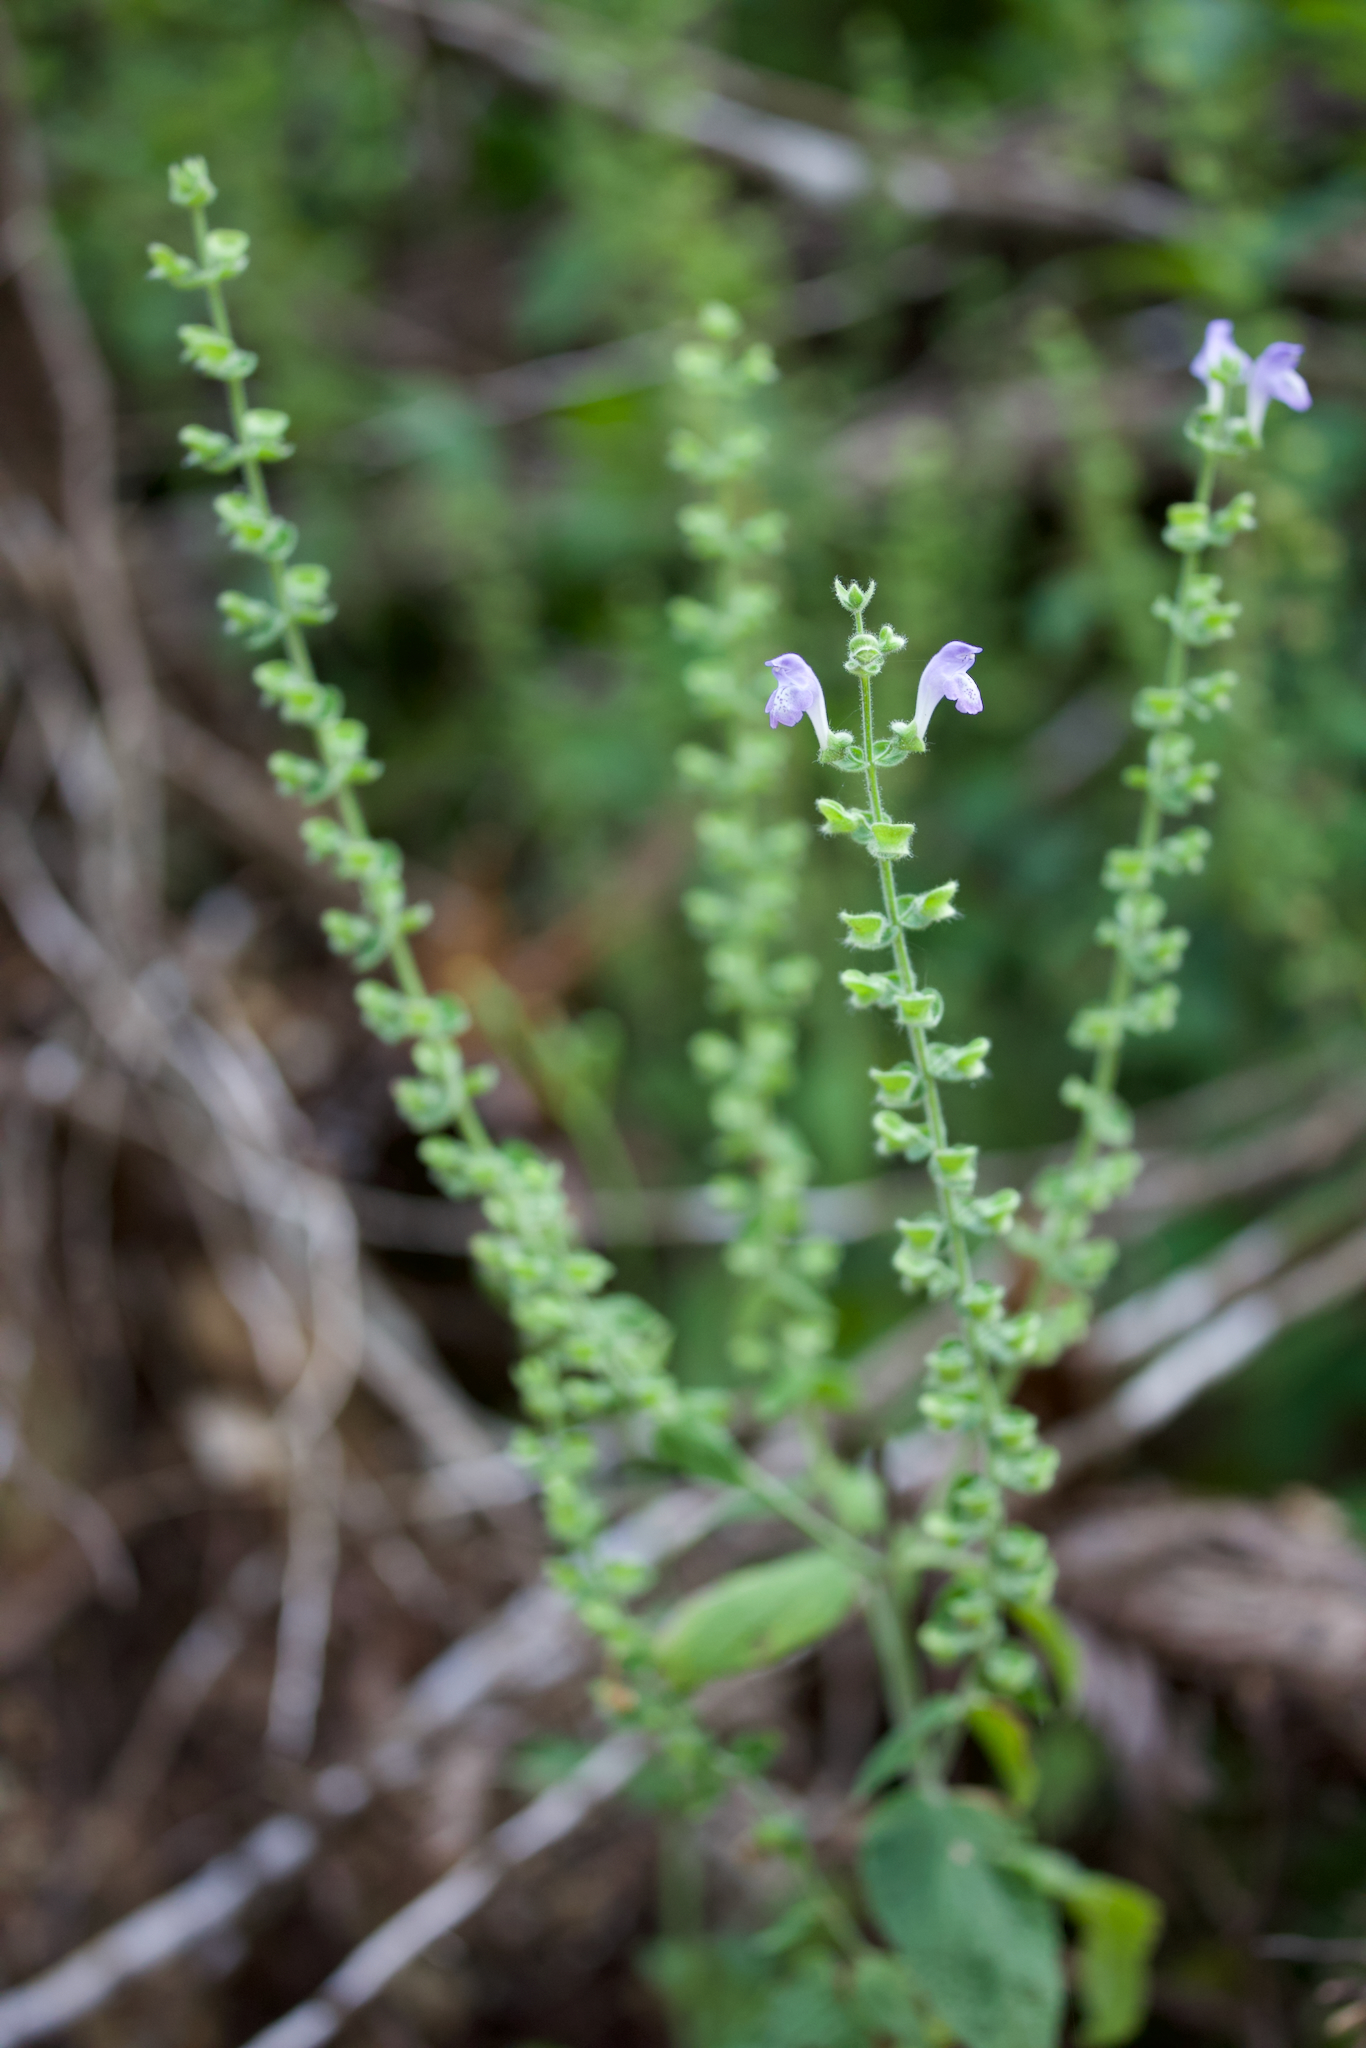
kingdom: Plantae
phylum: Tracheophyta
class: Magnoliopsida
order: Lamiales
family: Lamiaceae
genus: Scutellaria
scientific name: Scutellaria ovata
